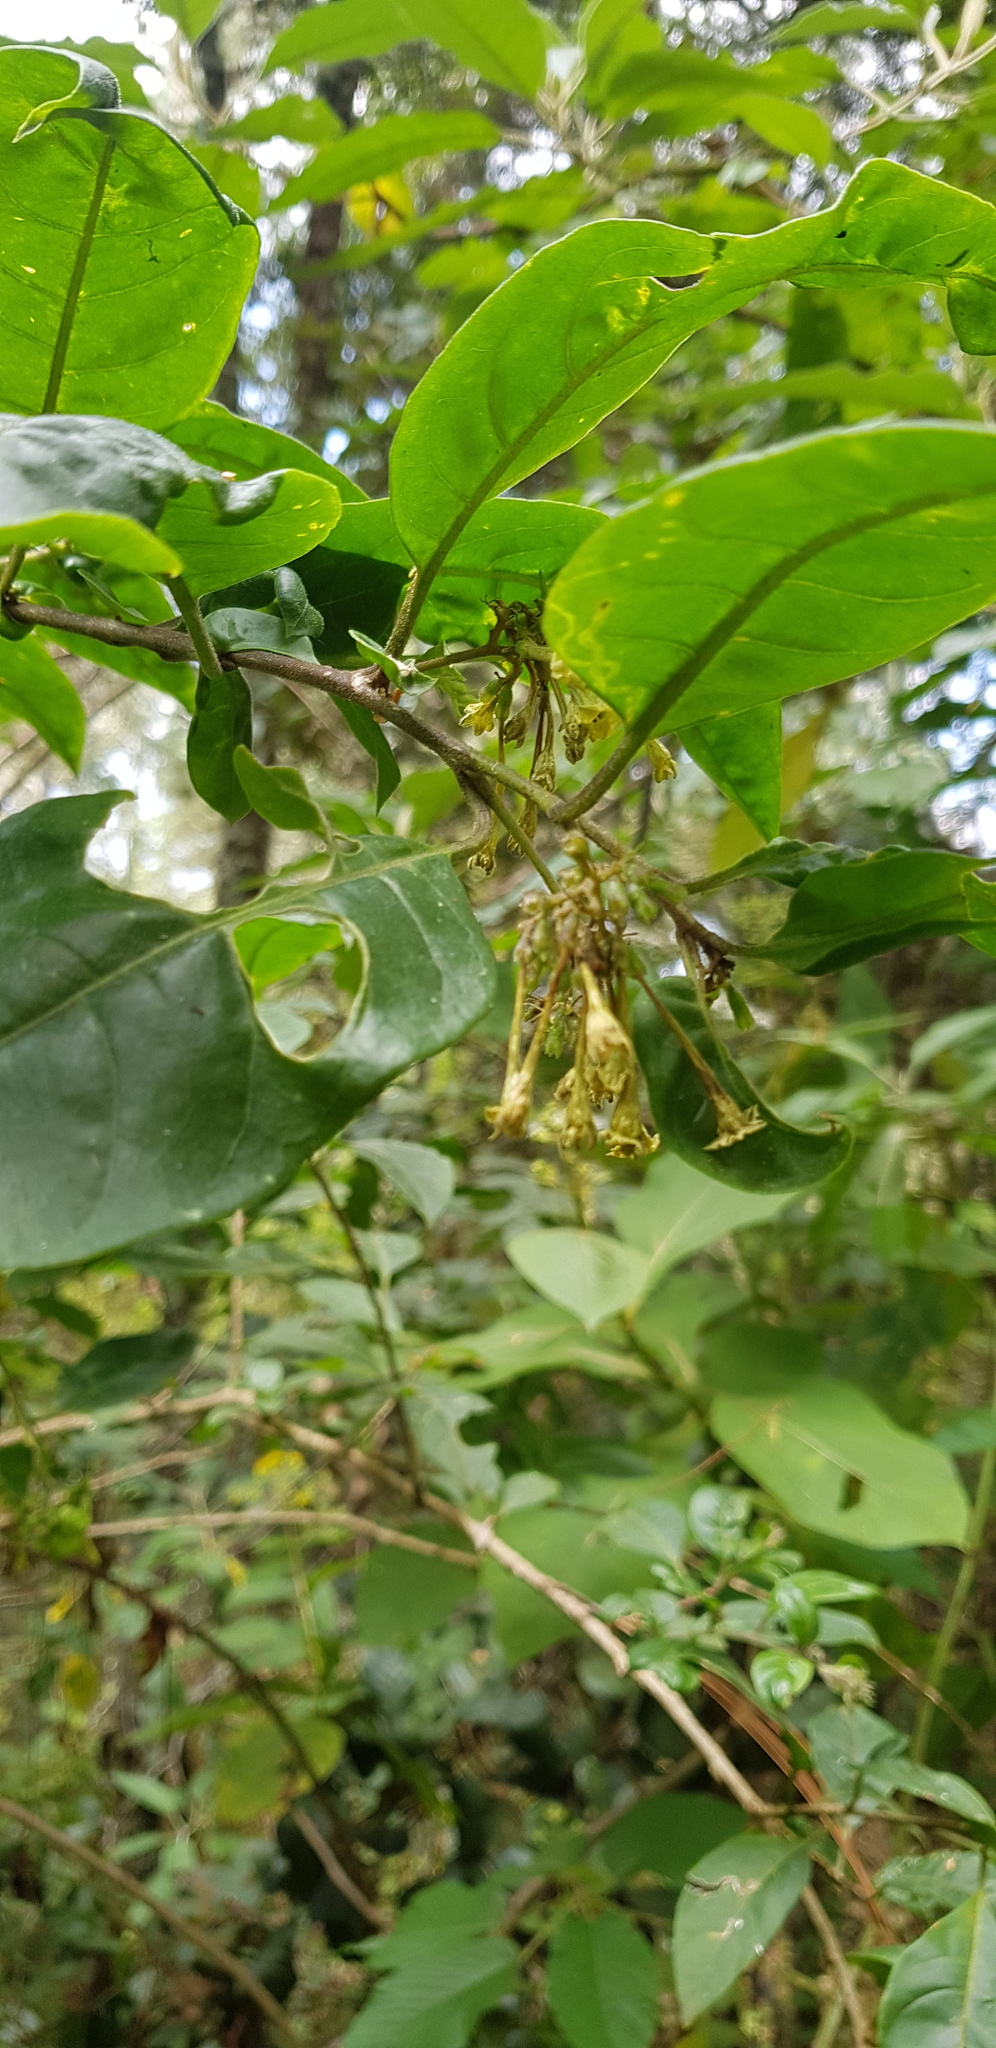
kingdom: Plantae
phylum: Tracheophyta
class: Magnoliopsida
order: Solanales
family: Solanaceae
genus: Cestrum
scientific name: Cestrum aurantiacum
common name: Orange cestrum
